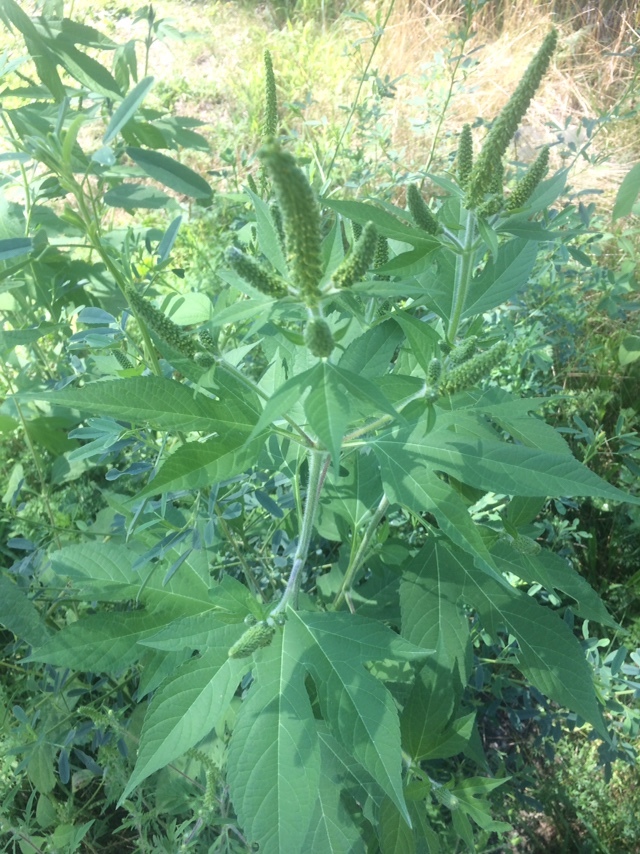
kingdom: Plantae
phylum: Tracheophyta
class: Magnoliopsida
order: Asterales
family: Asteraceae
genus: Ambrosia
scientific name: Ambrosia trifida
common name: Giant ragweed
